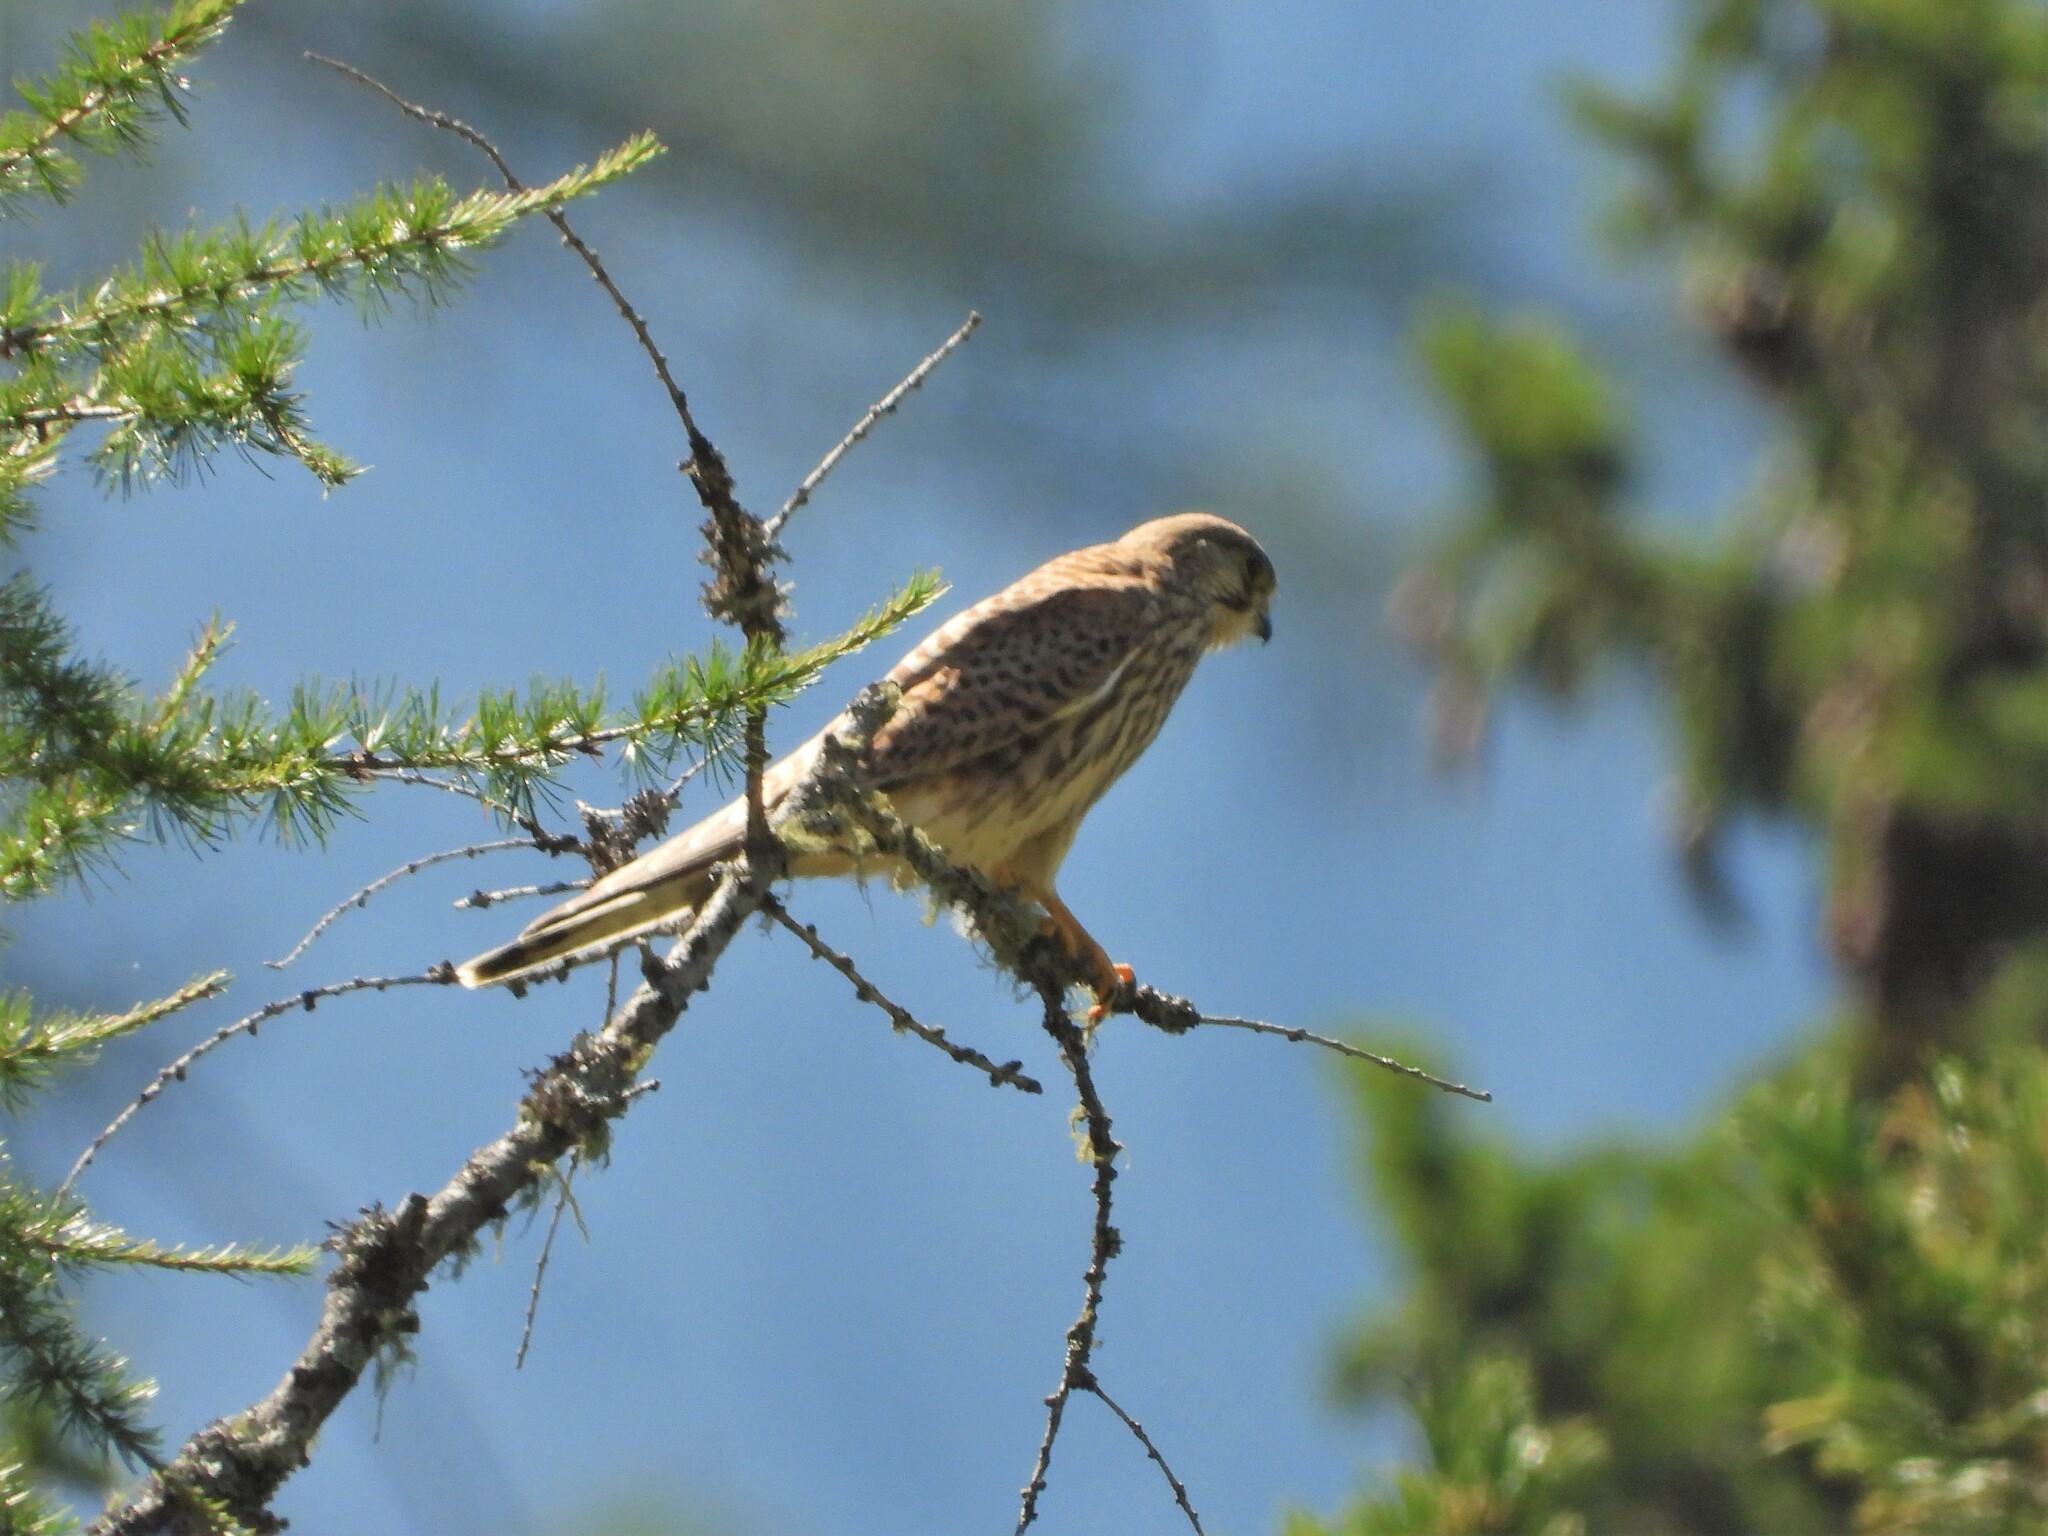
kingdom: Animalia
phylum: Chordata
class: Aves
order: Falconiformes
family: Falconidae
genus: Falco
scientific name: Falco tinnunculus
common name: Common kestrel
